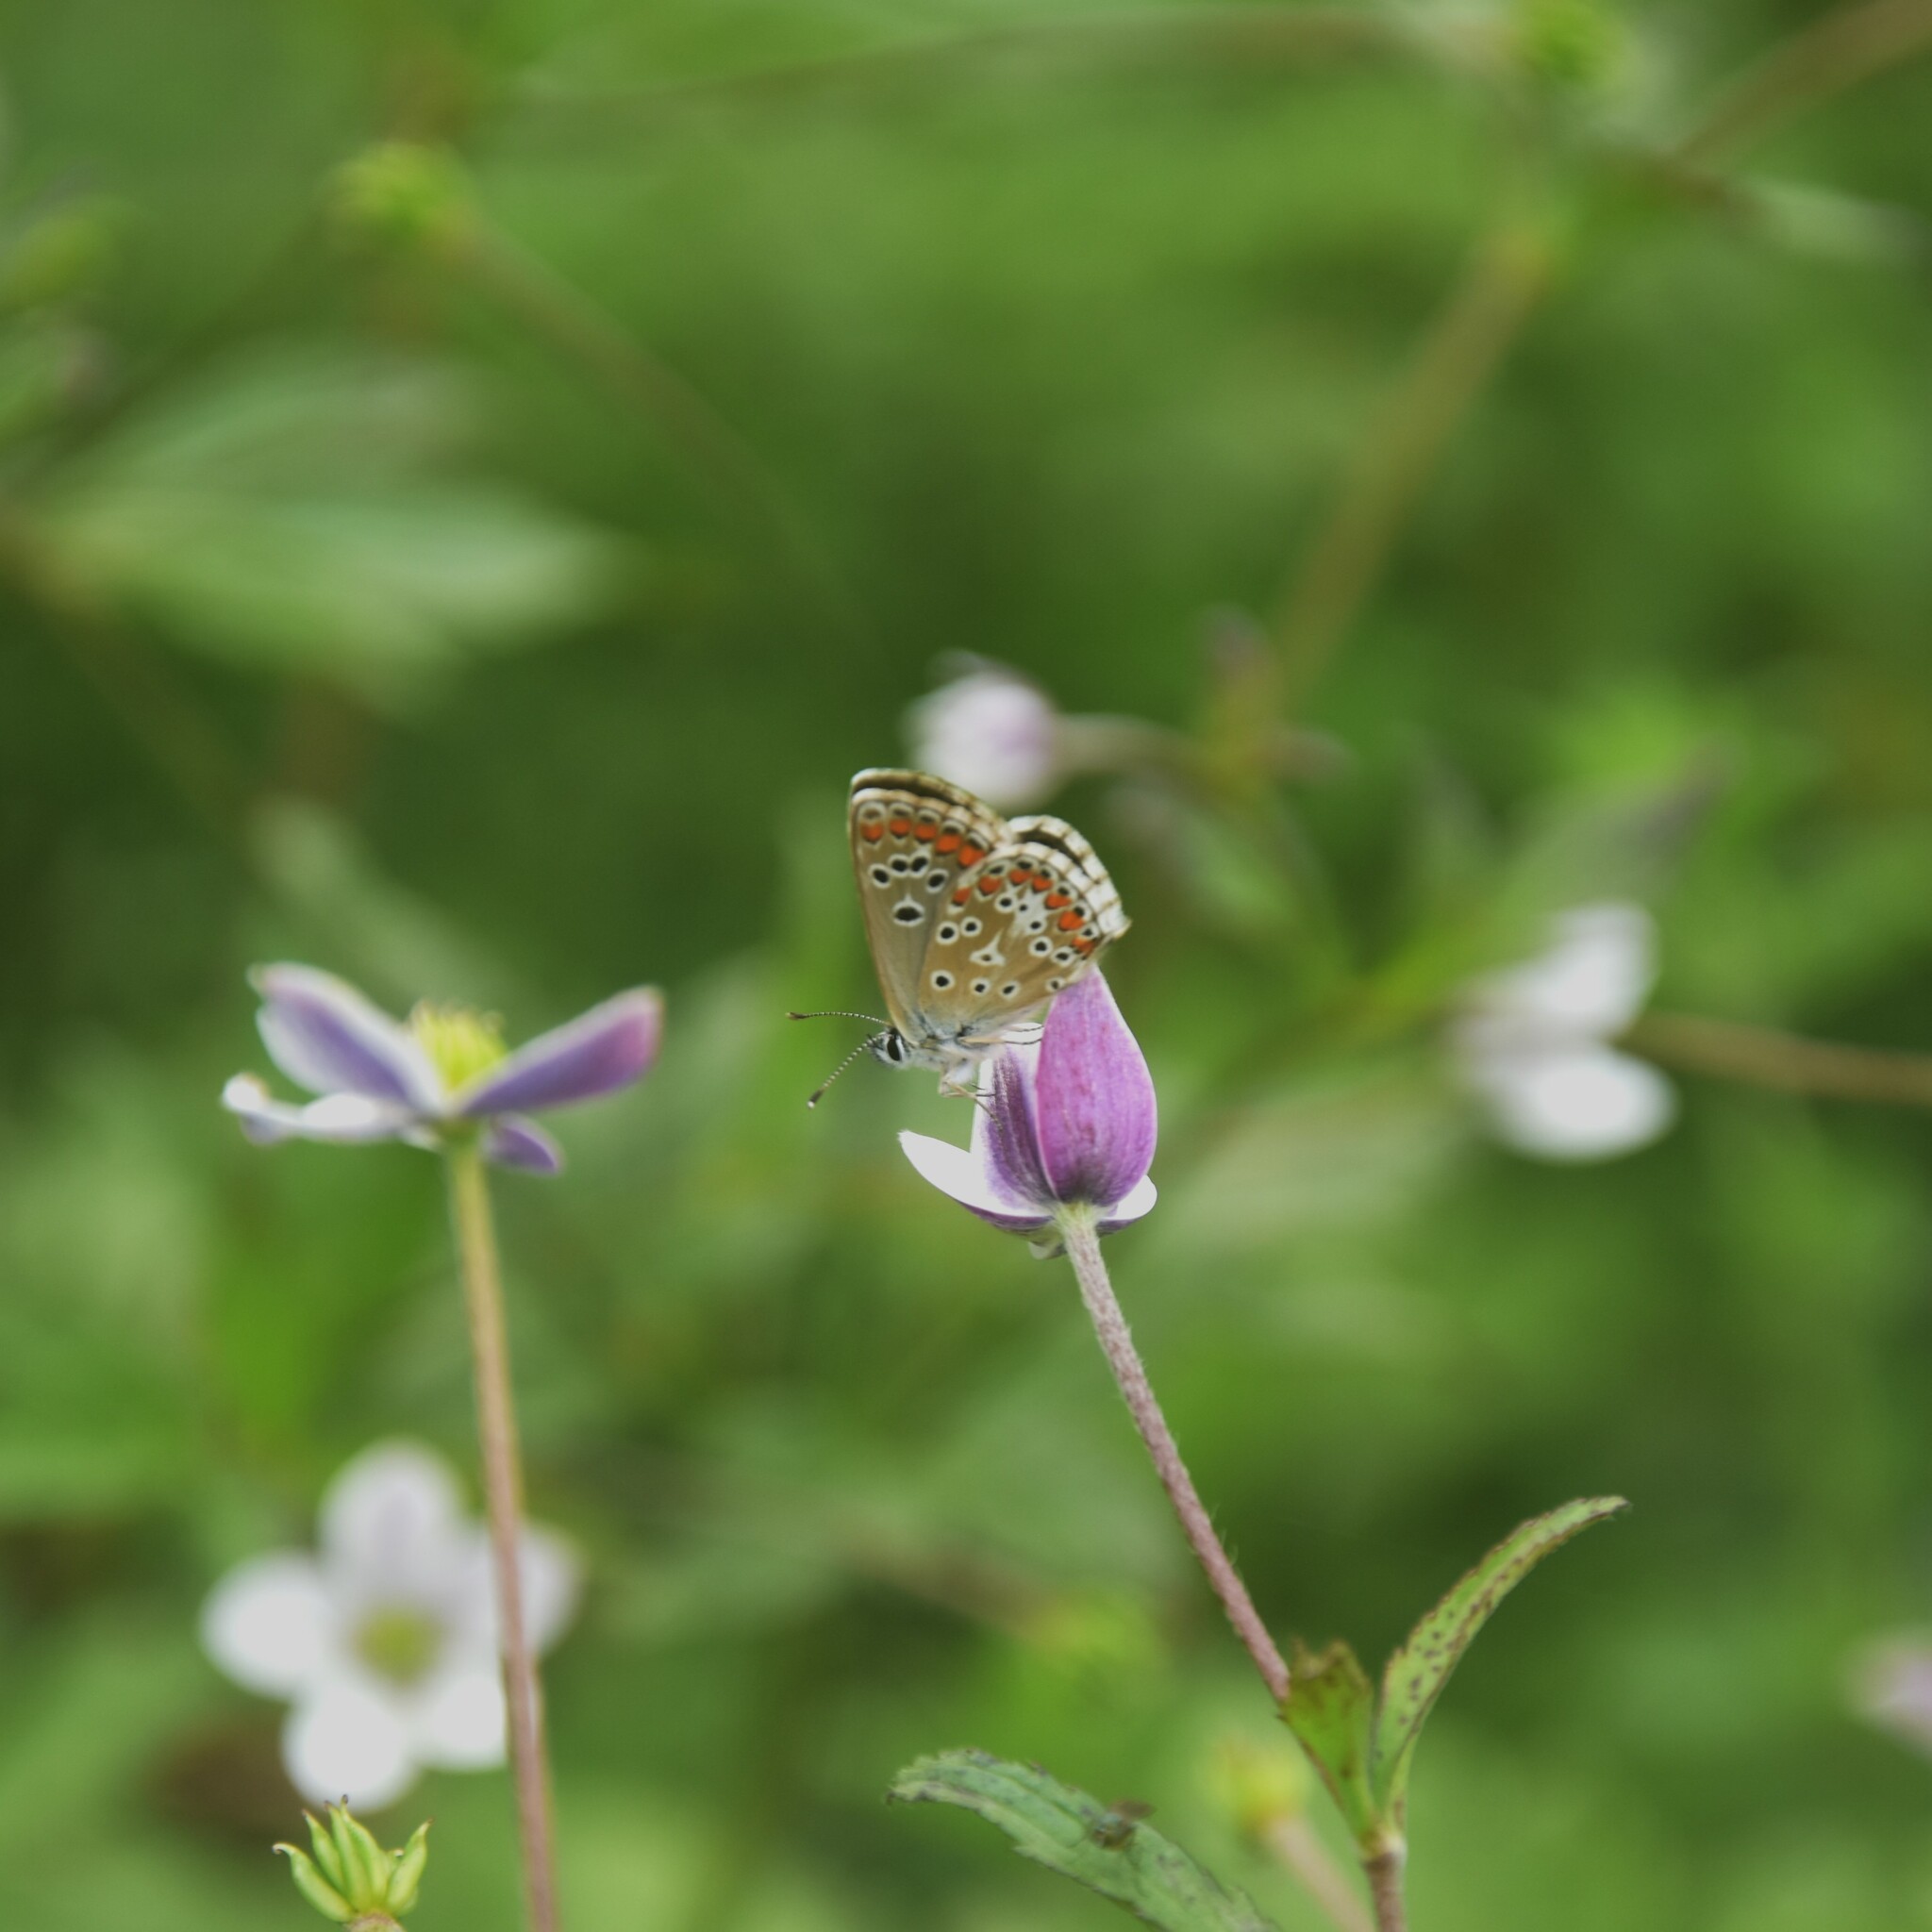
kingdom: Animalia
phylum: Arthropoda
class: Insecta
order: Lepidoptera
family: Lycaenidae
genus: Aricia
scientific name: Aricia agestis
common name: Brown argus
